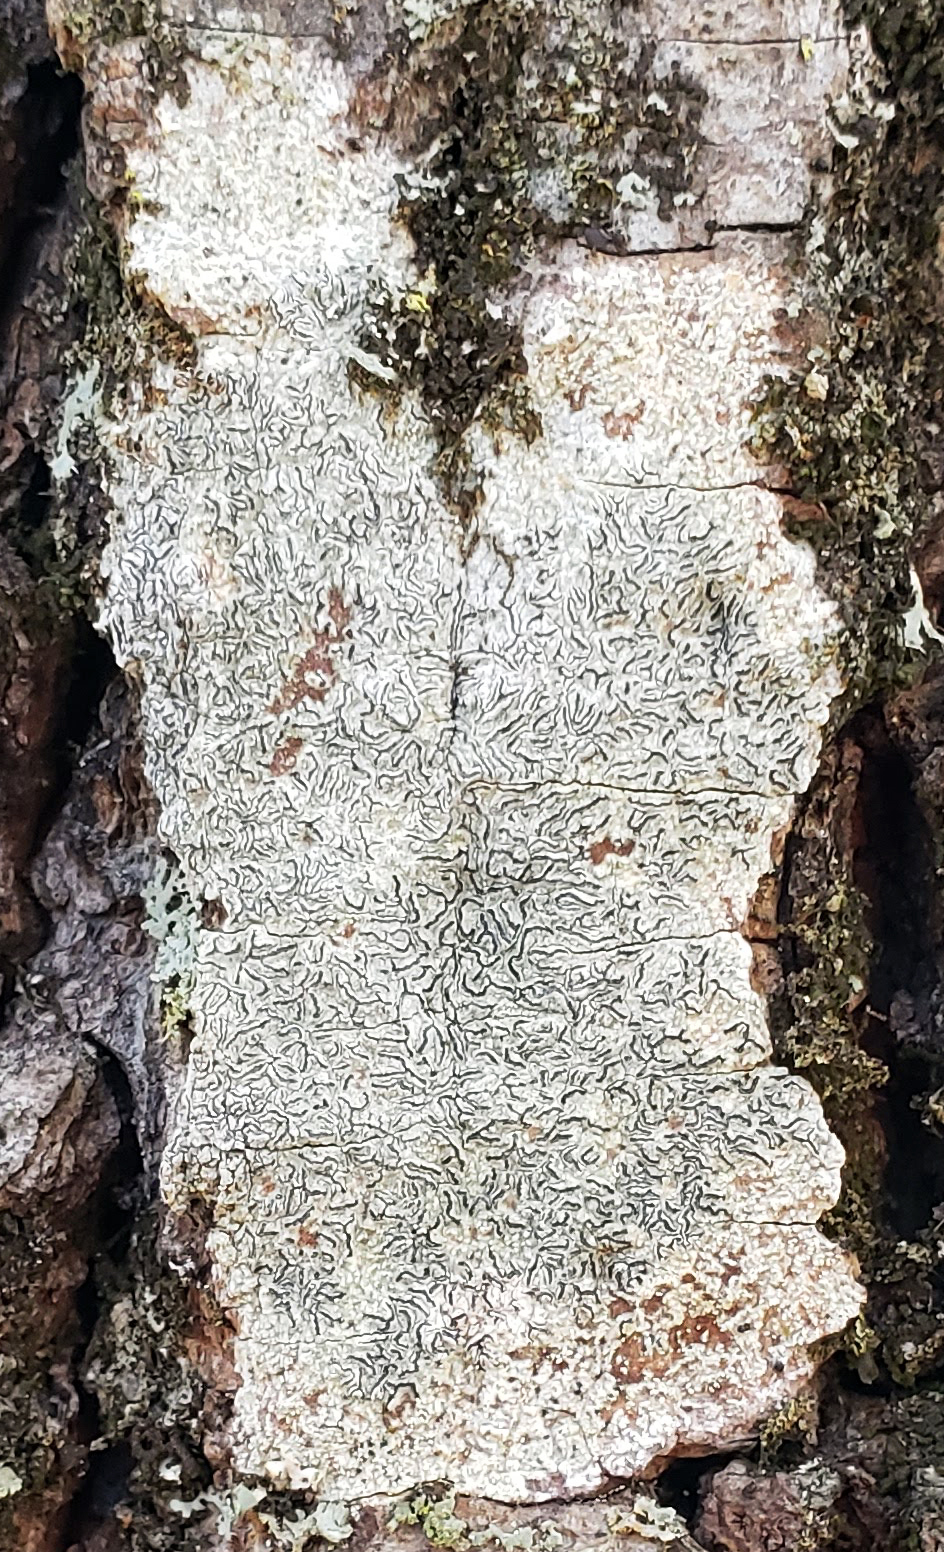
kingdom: Fungi
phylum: Ascomycota
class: Lecanoromycetes
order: Ostropales
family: Graphidaceae
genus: Graphis
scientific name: Graphis scripta
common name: Script lichen
